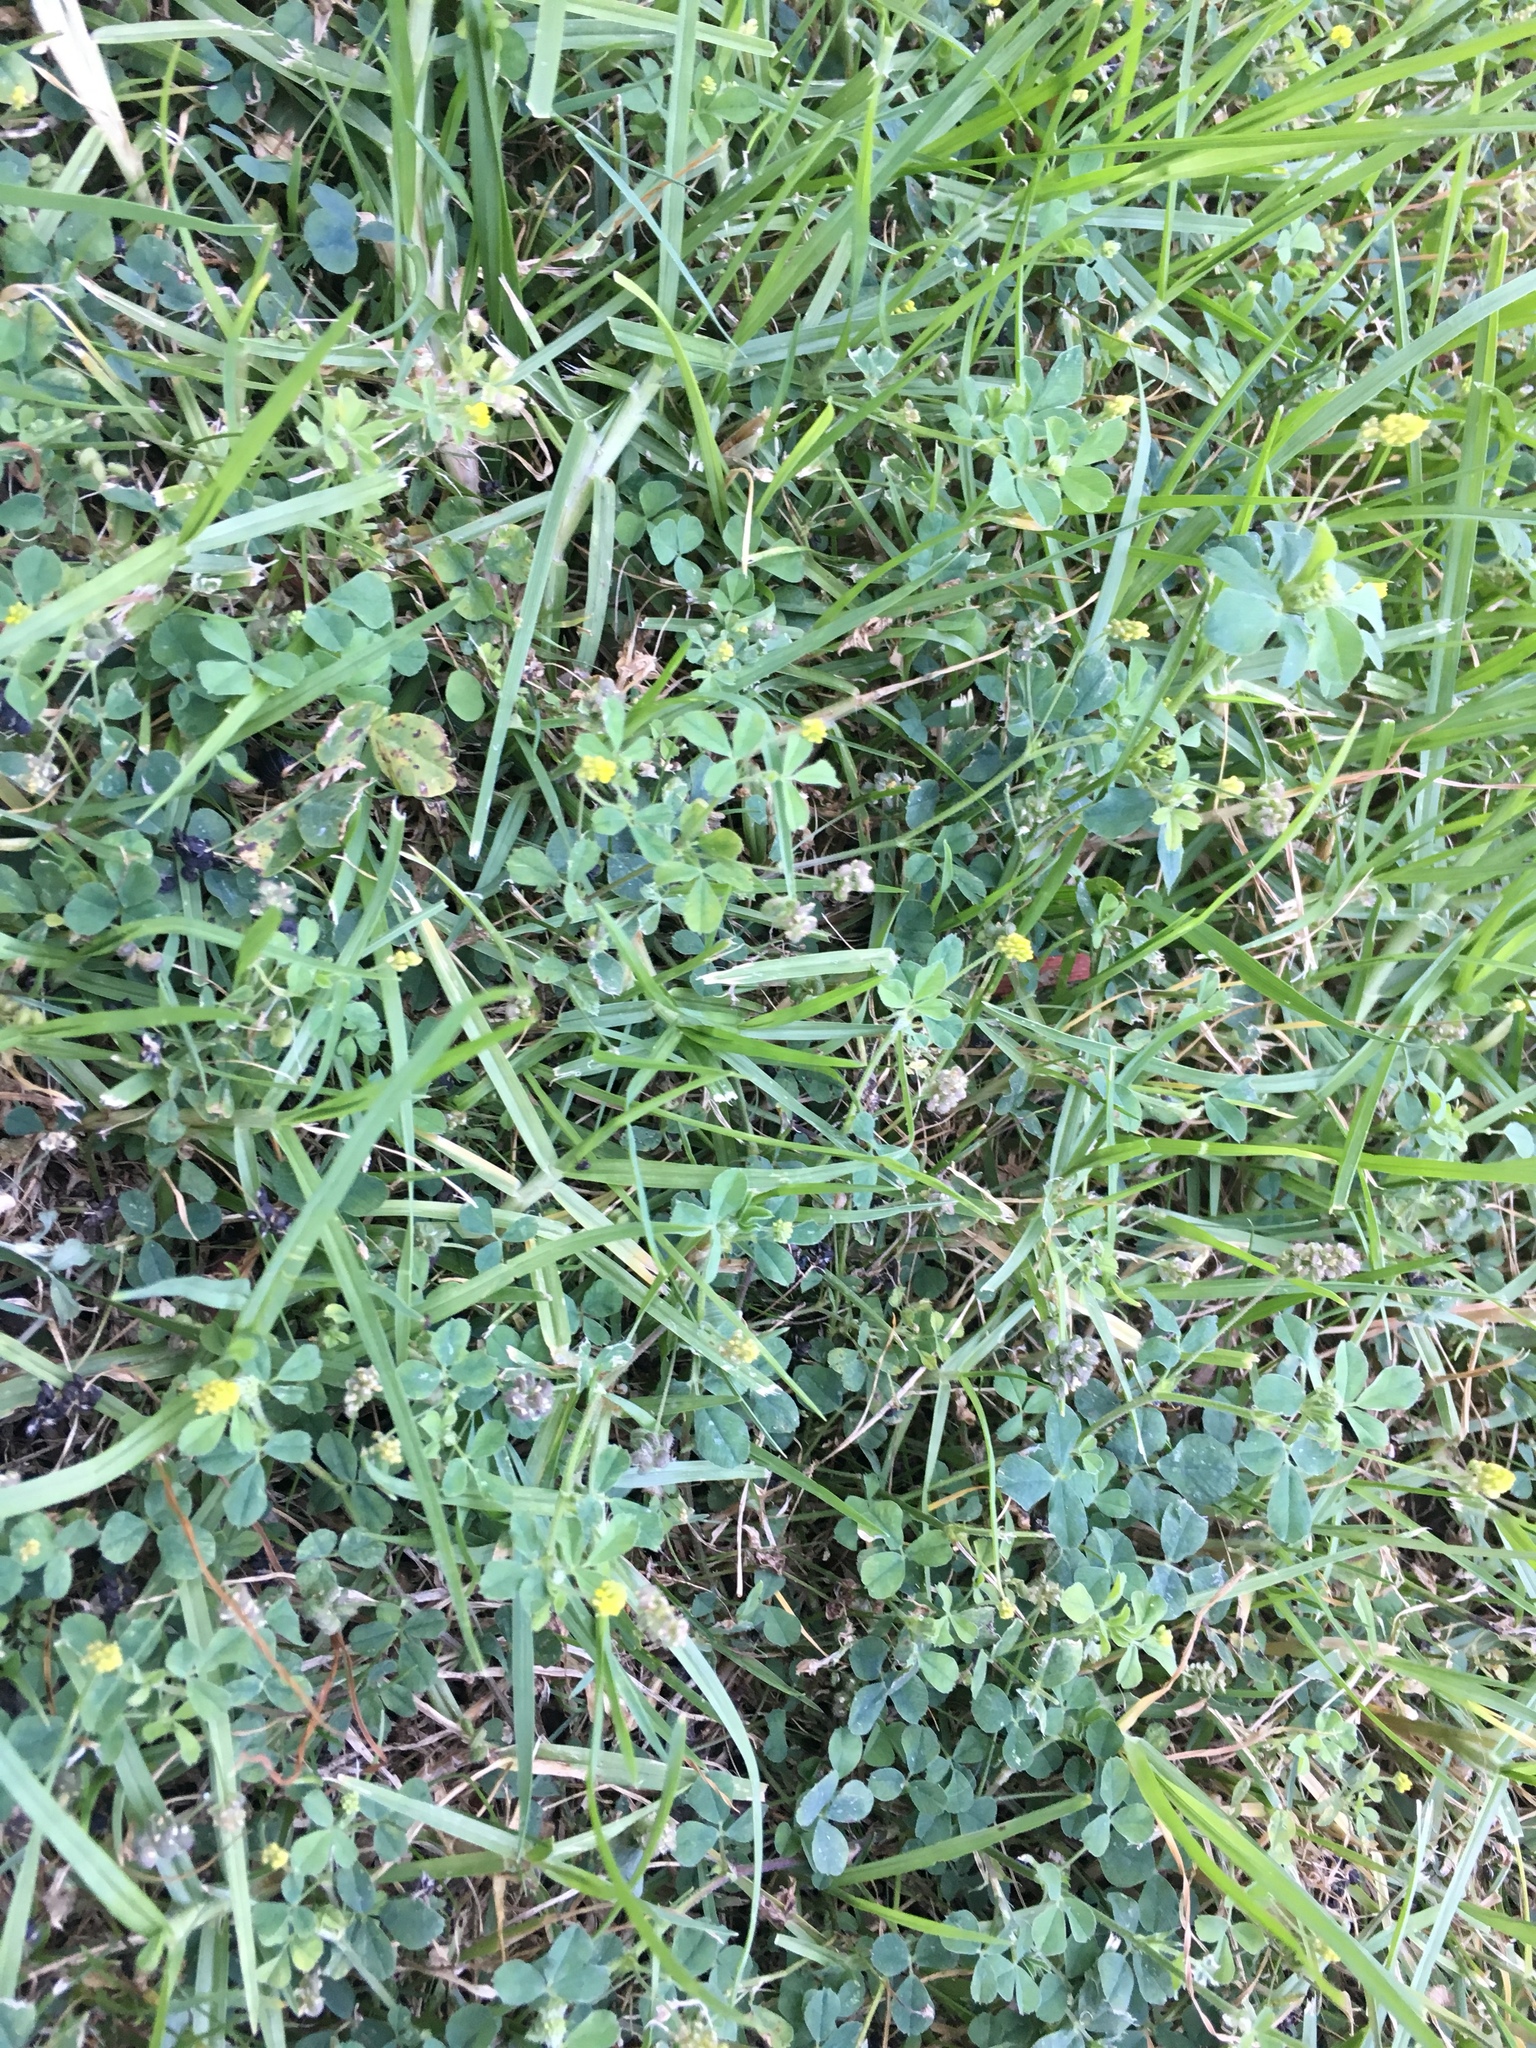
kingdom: Plantae
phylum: Tracheophyta
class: Magnoliopsida
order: Fabales
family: Fabaceae
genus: Medicago
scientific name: Medicago lupulina
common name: Black medick
